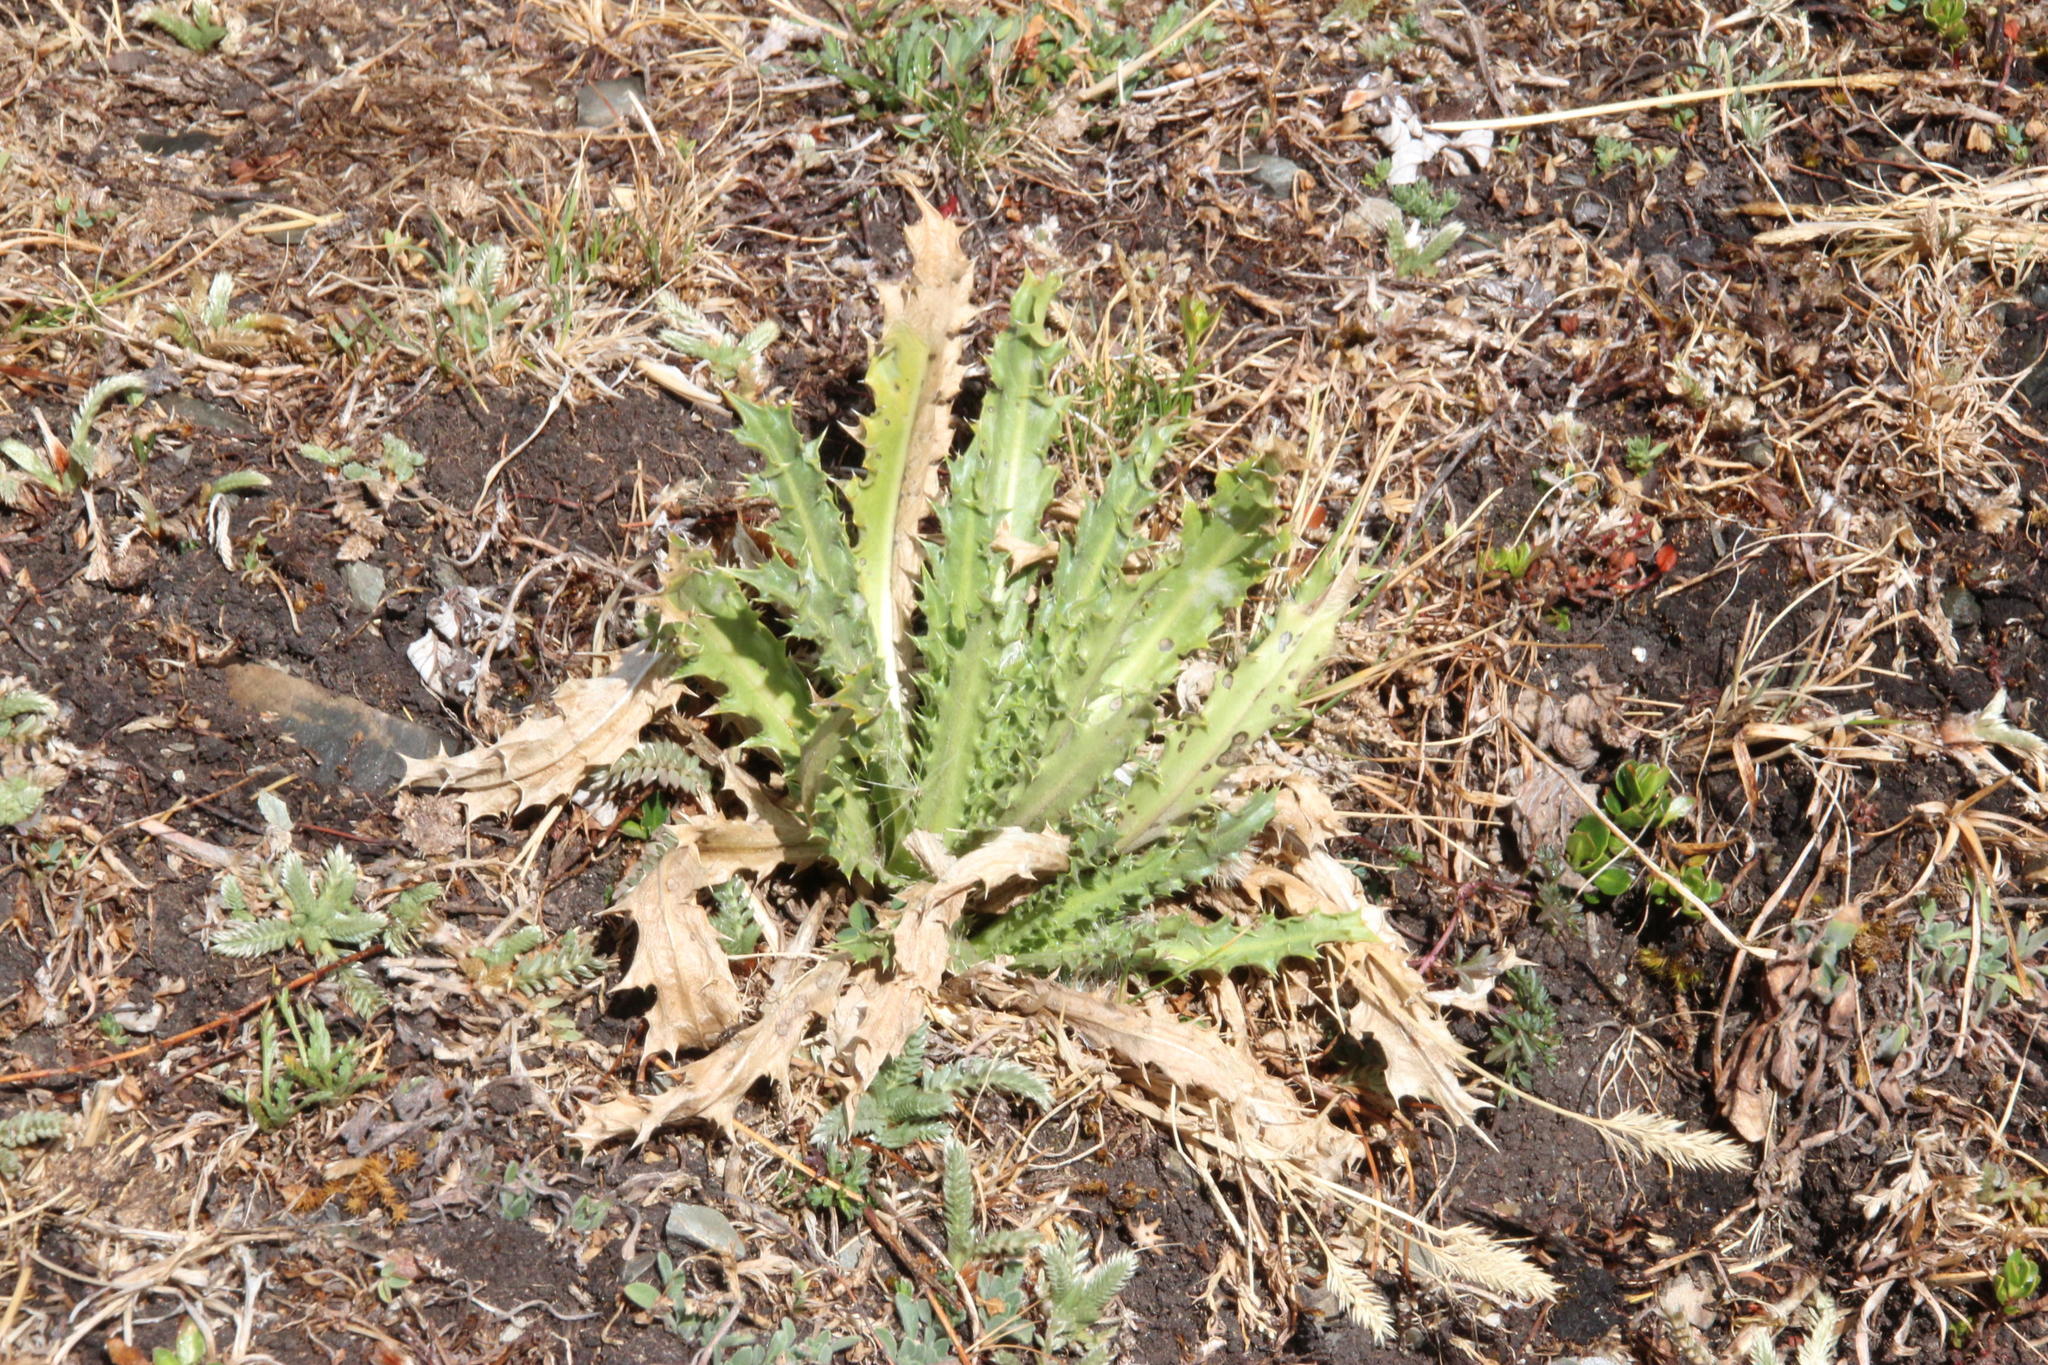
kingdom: Plantae
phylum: Tracheophyta
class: Magnoliopsida
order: Asterales
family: Asteraceae
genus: Perezia
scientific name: Perezia multiflora
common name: Perezia
